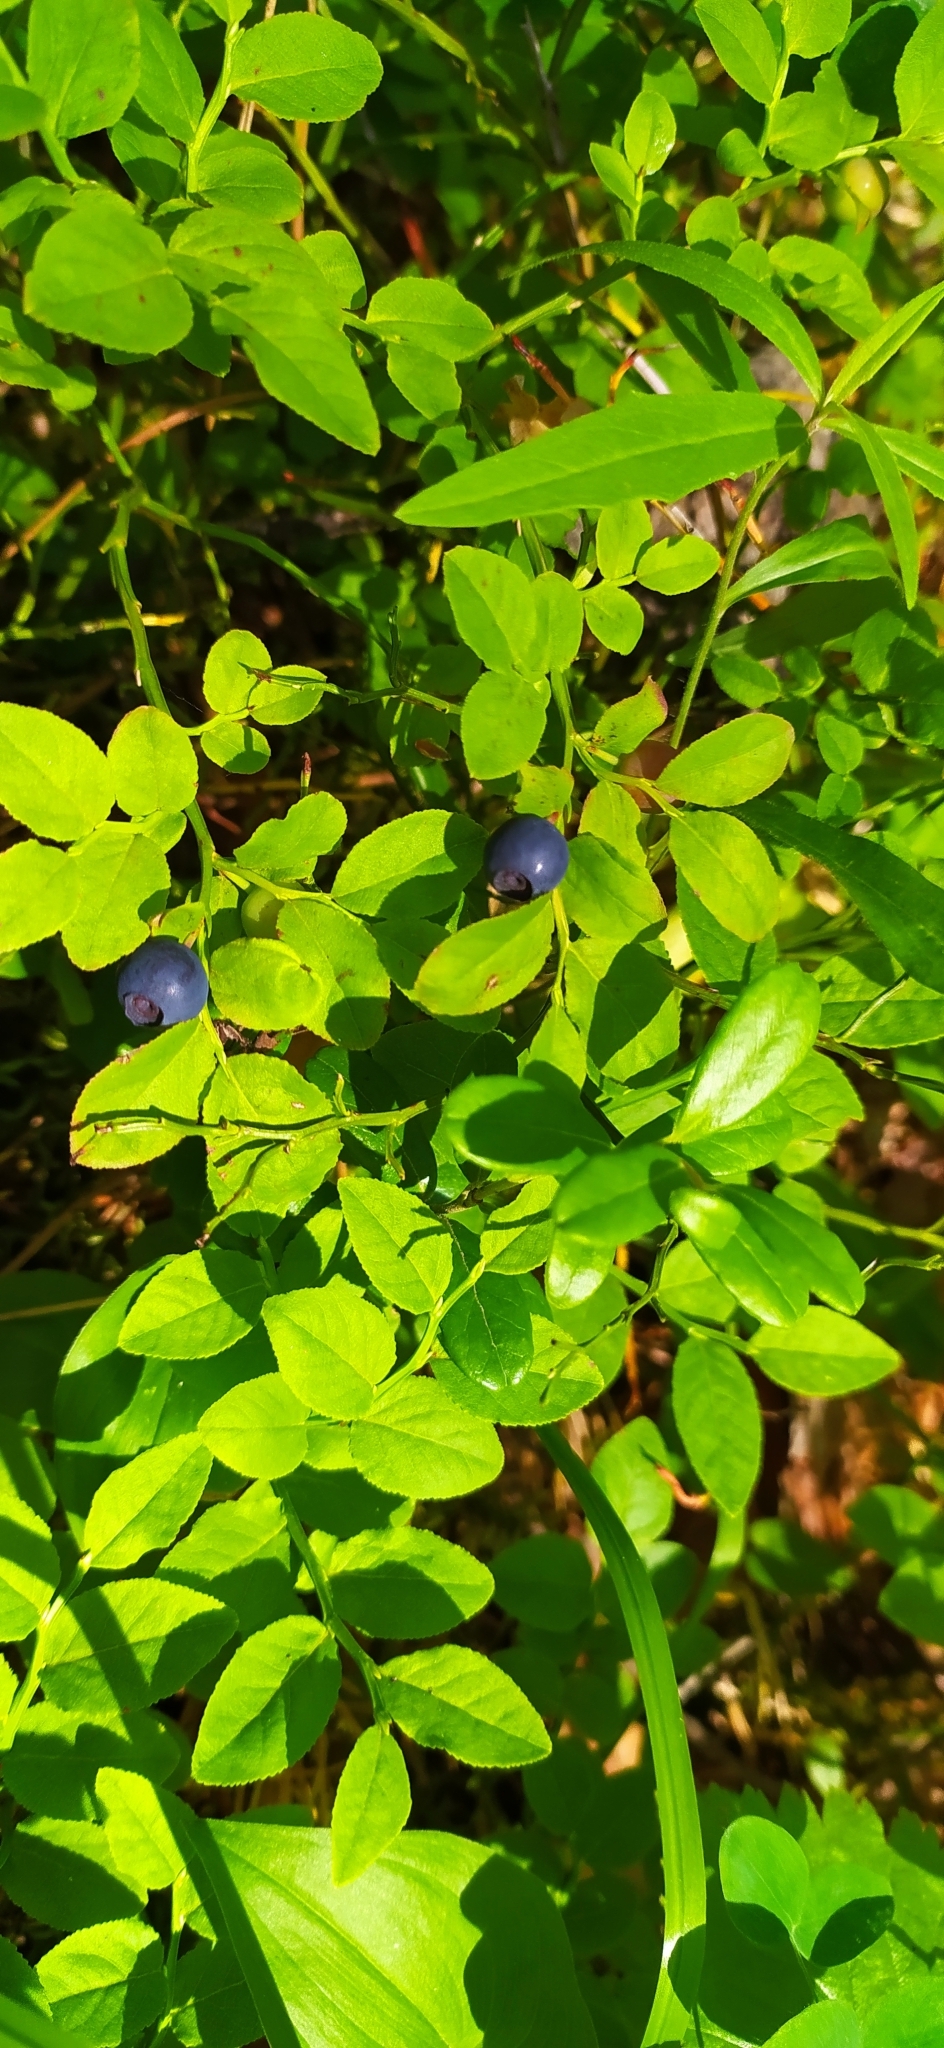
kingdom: Plantae
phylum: Tracheophyta
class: Magnoliopsida
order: Ericales
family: Ericaceae
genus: Vaccinium
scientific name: Vaccinium myrtillus
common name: Bilberry
